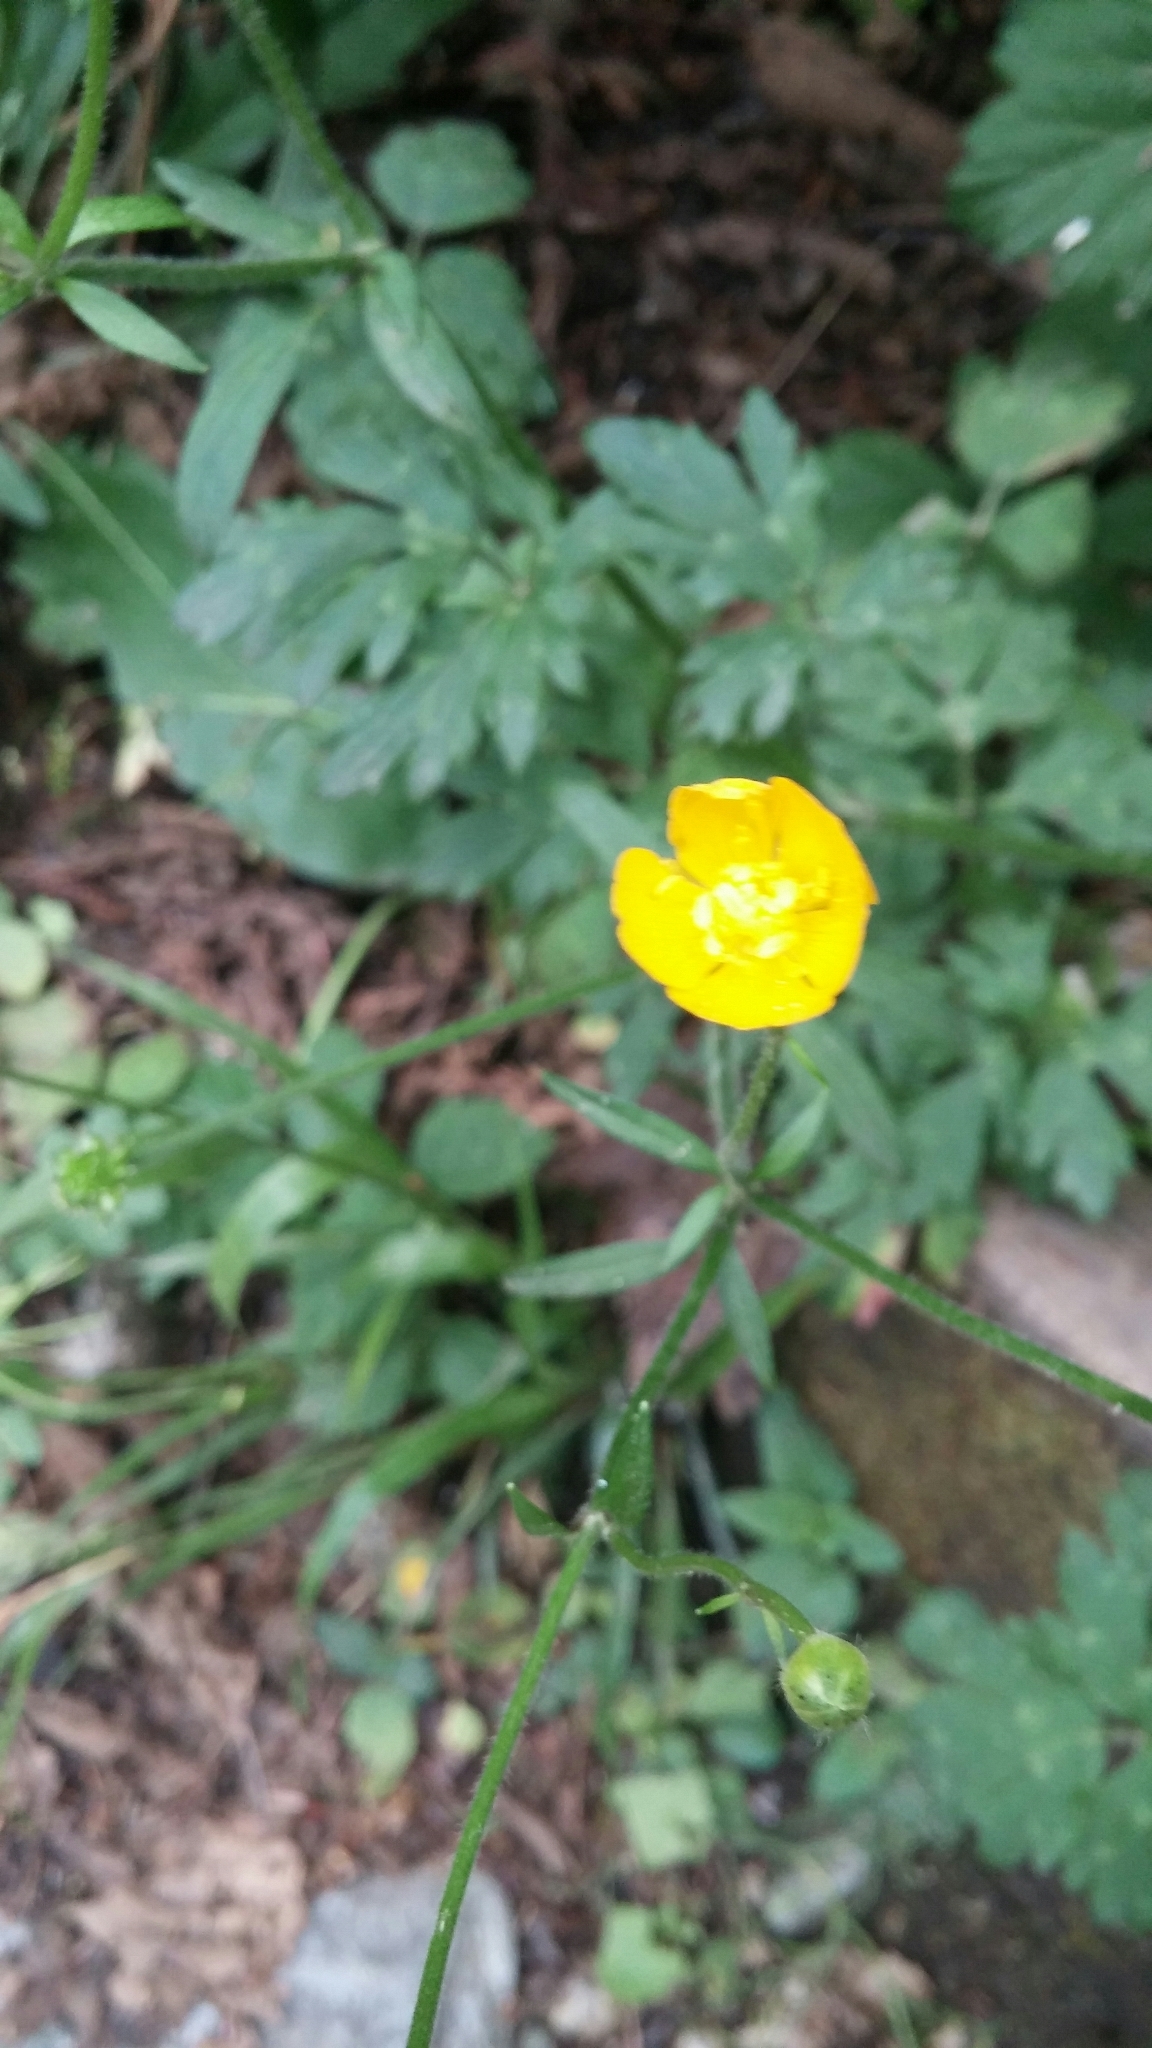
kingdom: Plantae
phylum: Tracheophyta
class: Magnoliopsida
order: Ranunculales
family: Ranunculaceae
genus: Ranunculus
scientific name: Ranunculus repens
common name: Creeping buttercup
